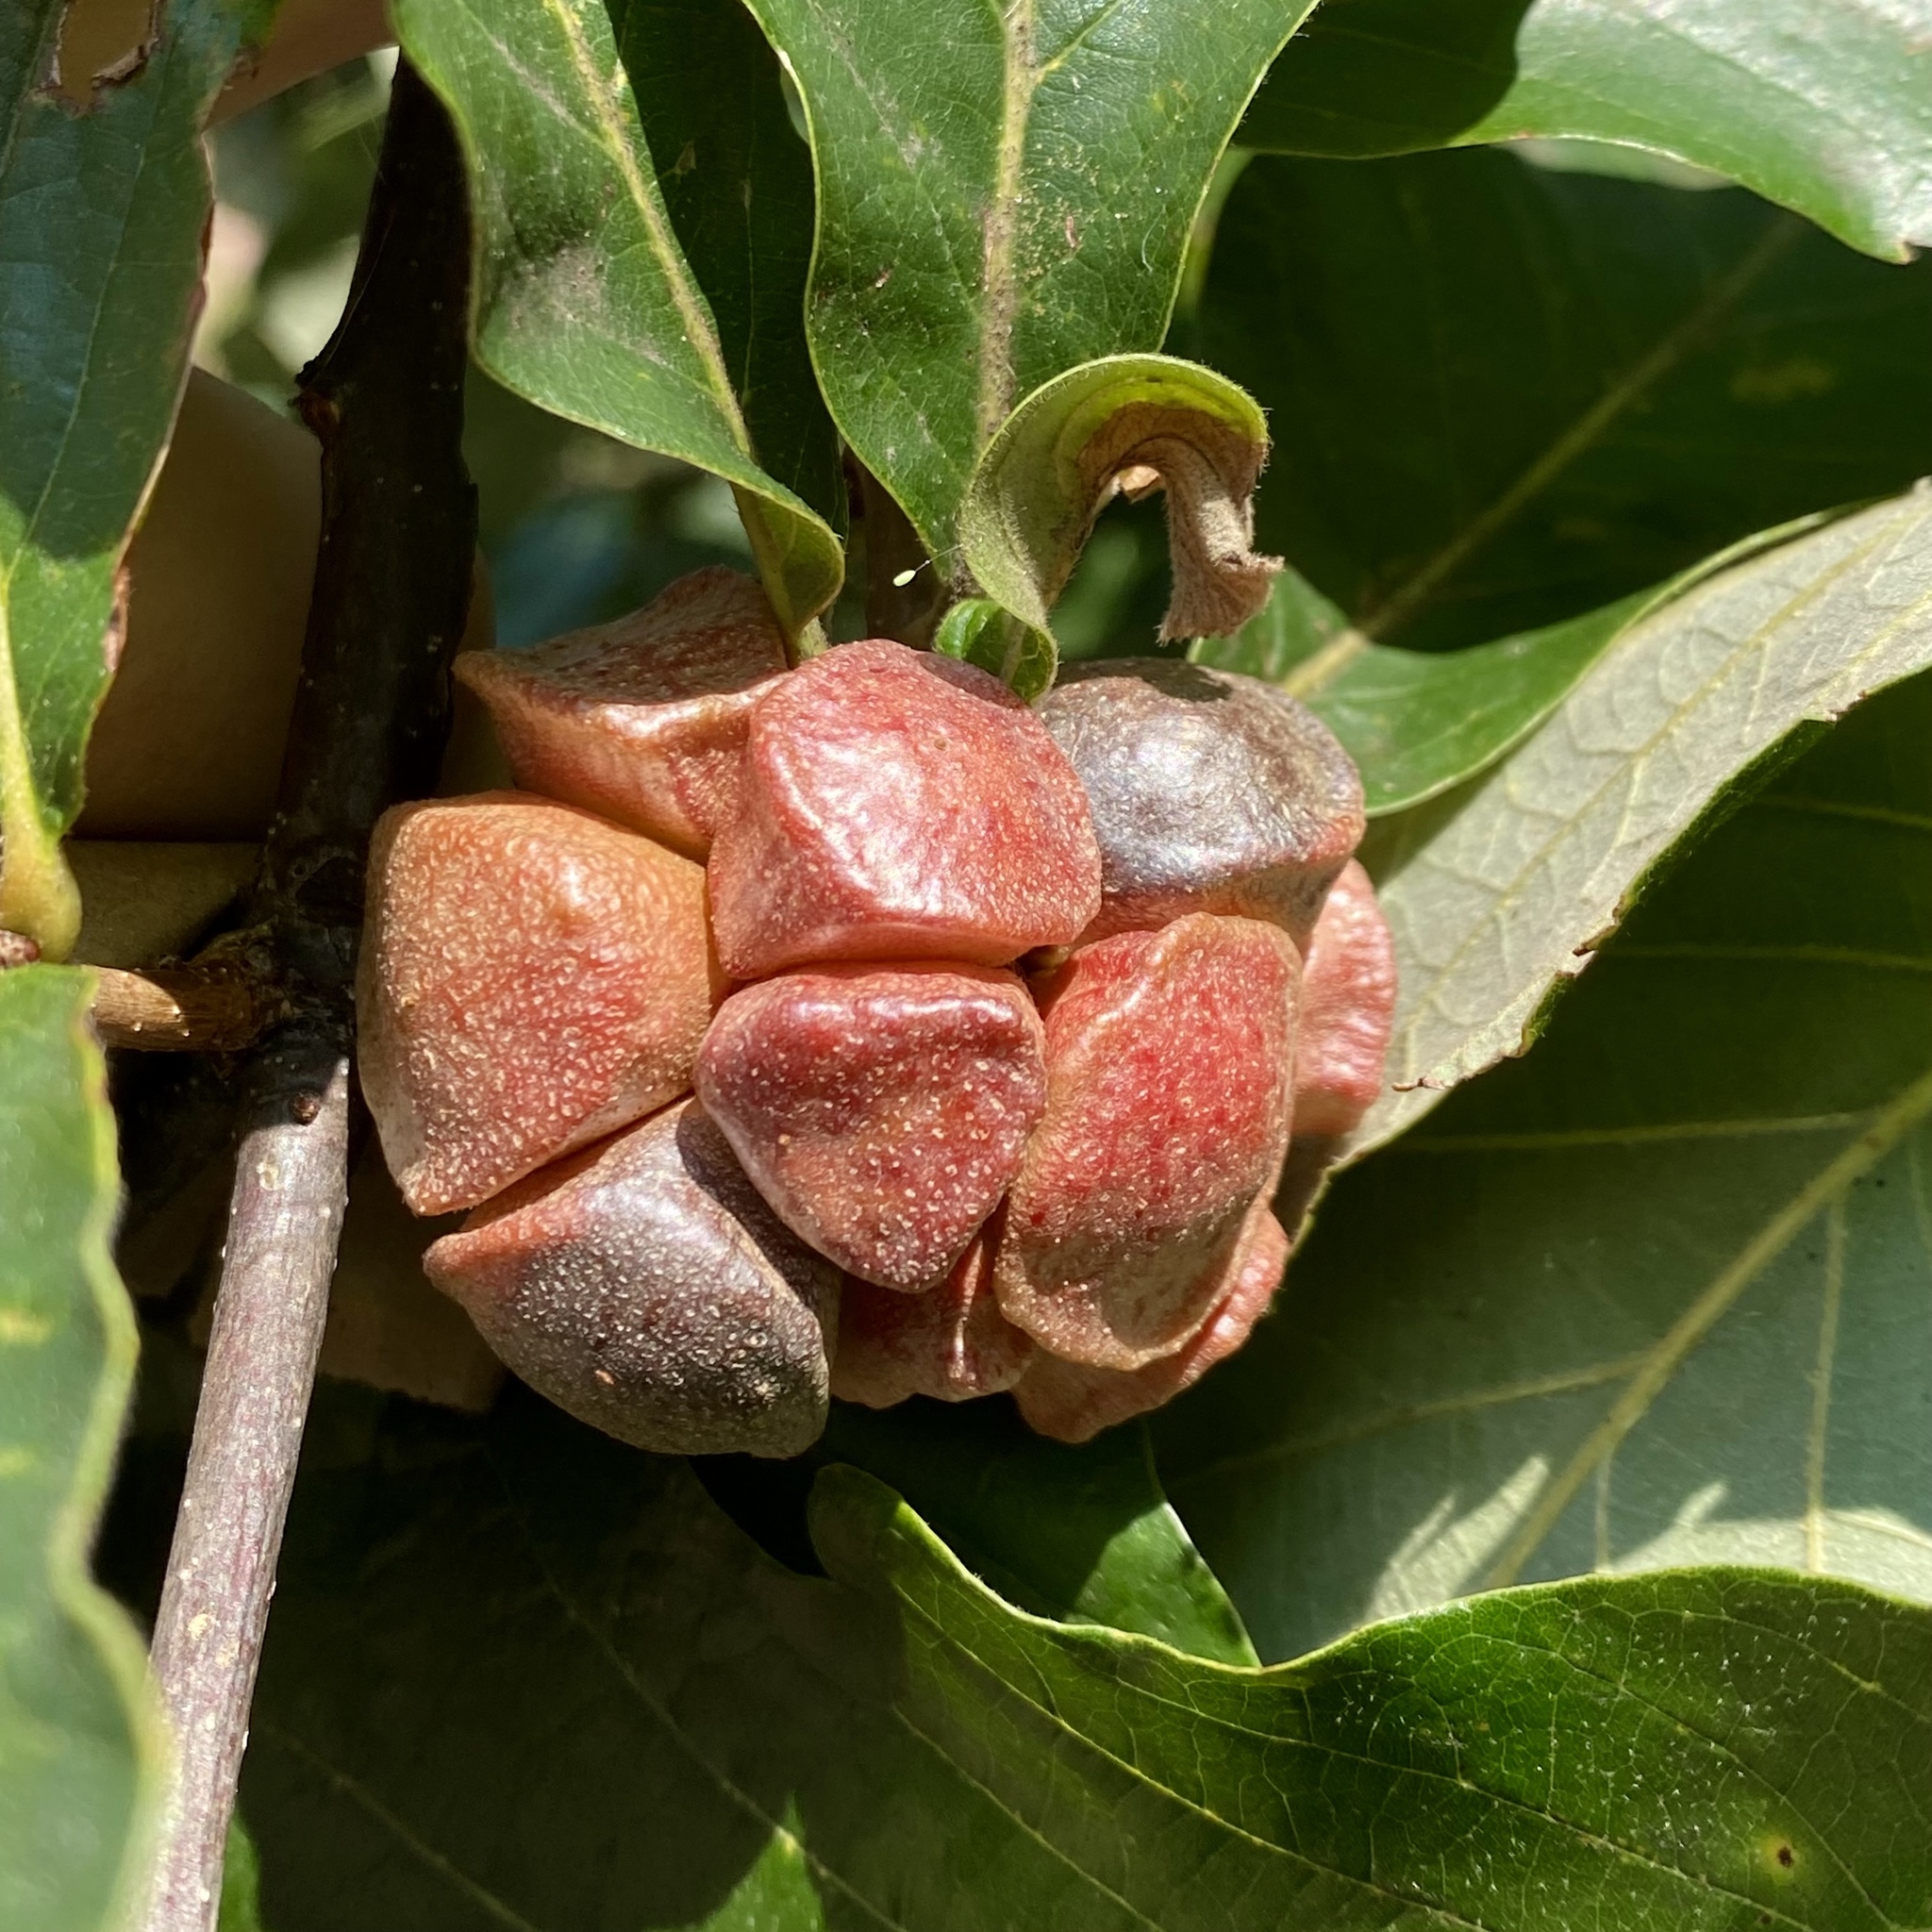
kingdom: Animalia
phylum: Arthropoda
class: Insecta
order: Hymenoptera
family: Cynipidae
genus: Andricus
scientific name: Andricus
